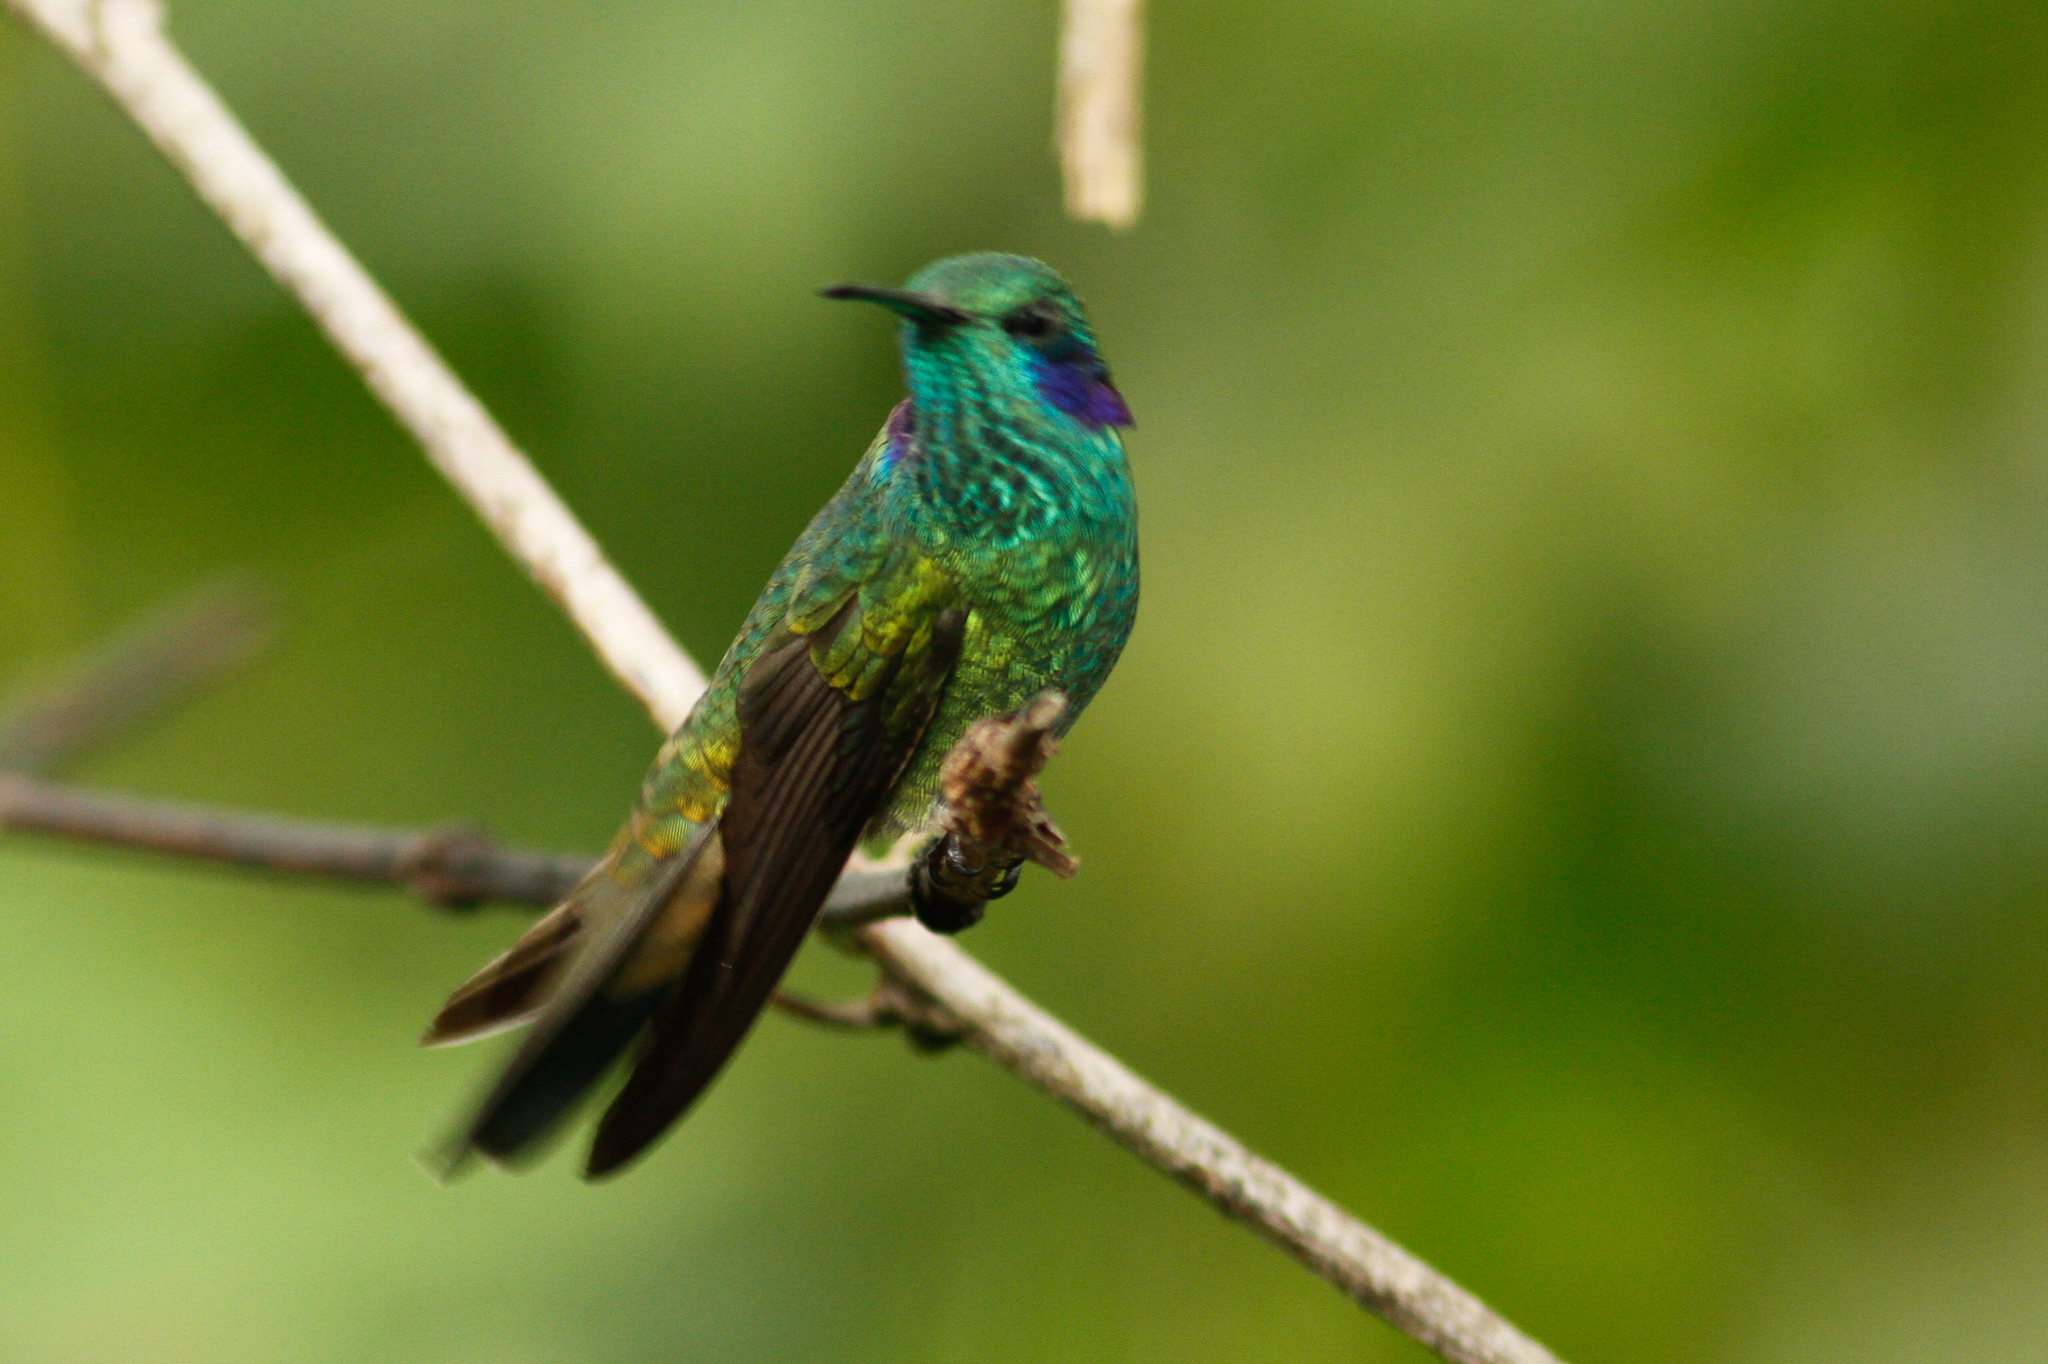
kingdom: Animalia
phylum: Chordata
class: Aves
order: Apodiformes
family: Trochilidae
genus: Colibri
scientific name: Colibri cyanotus
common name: Lesser violetear
